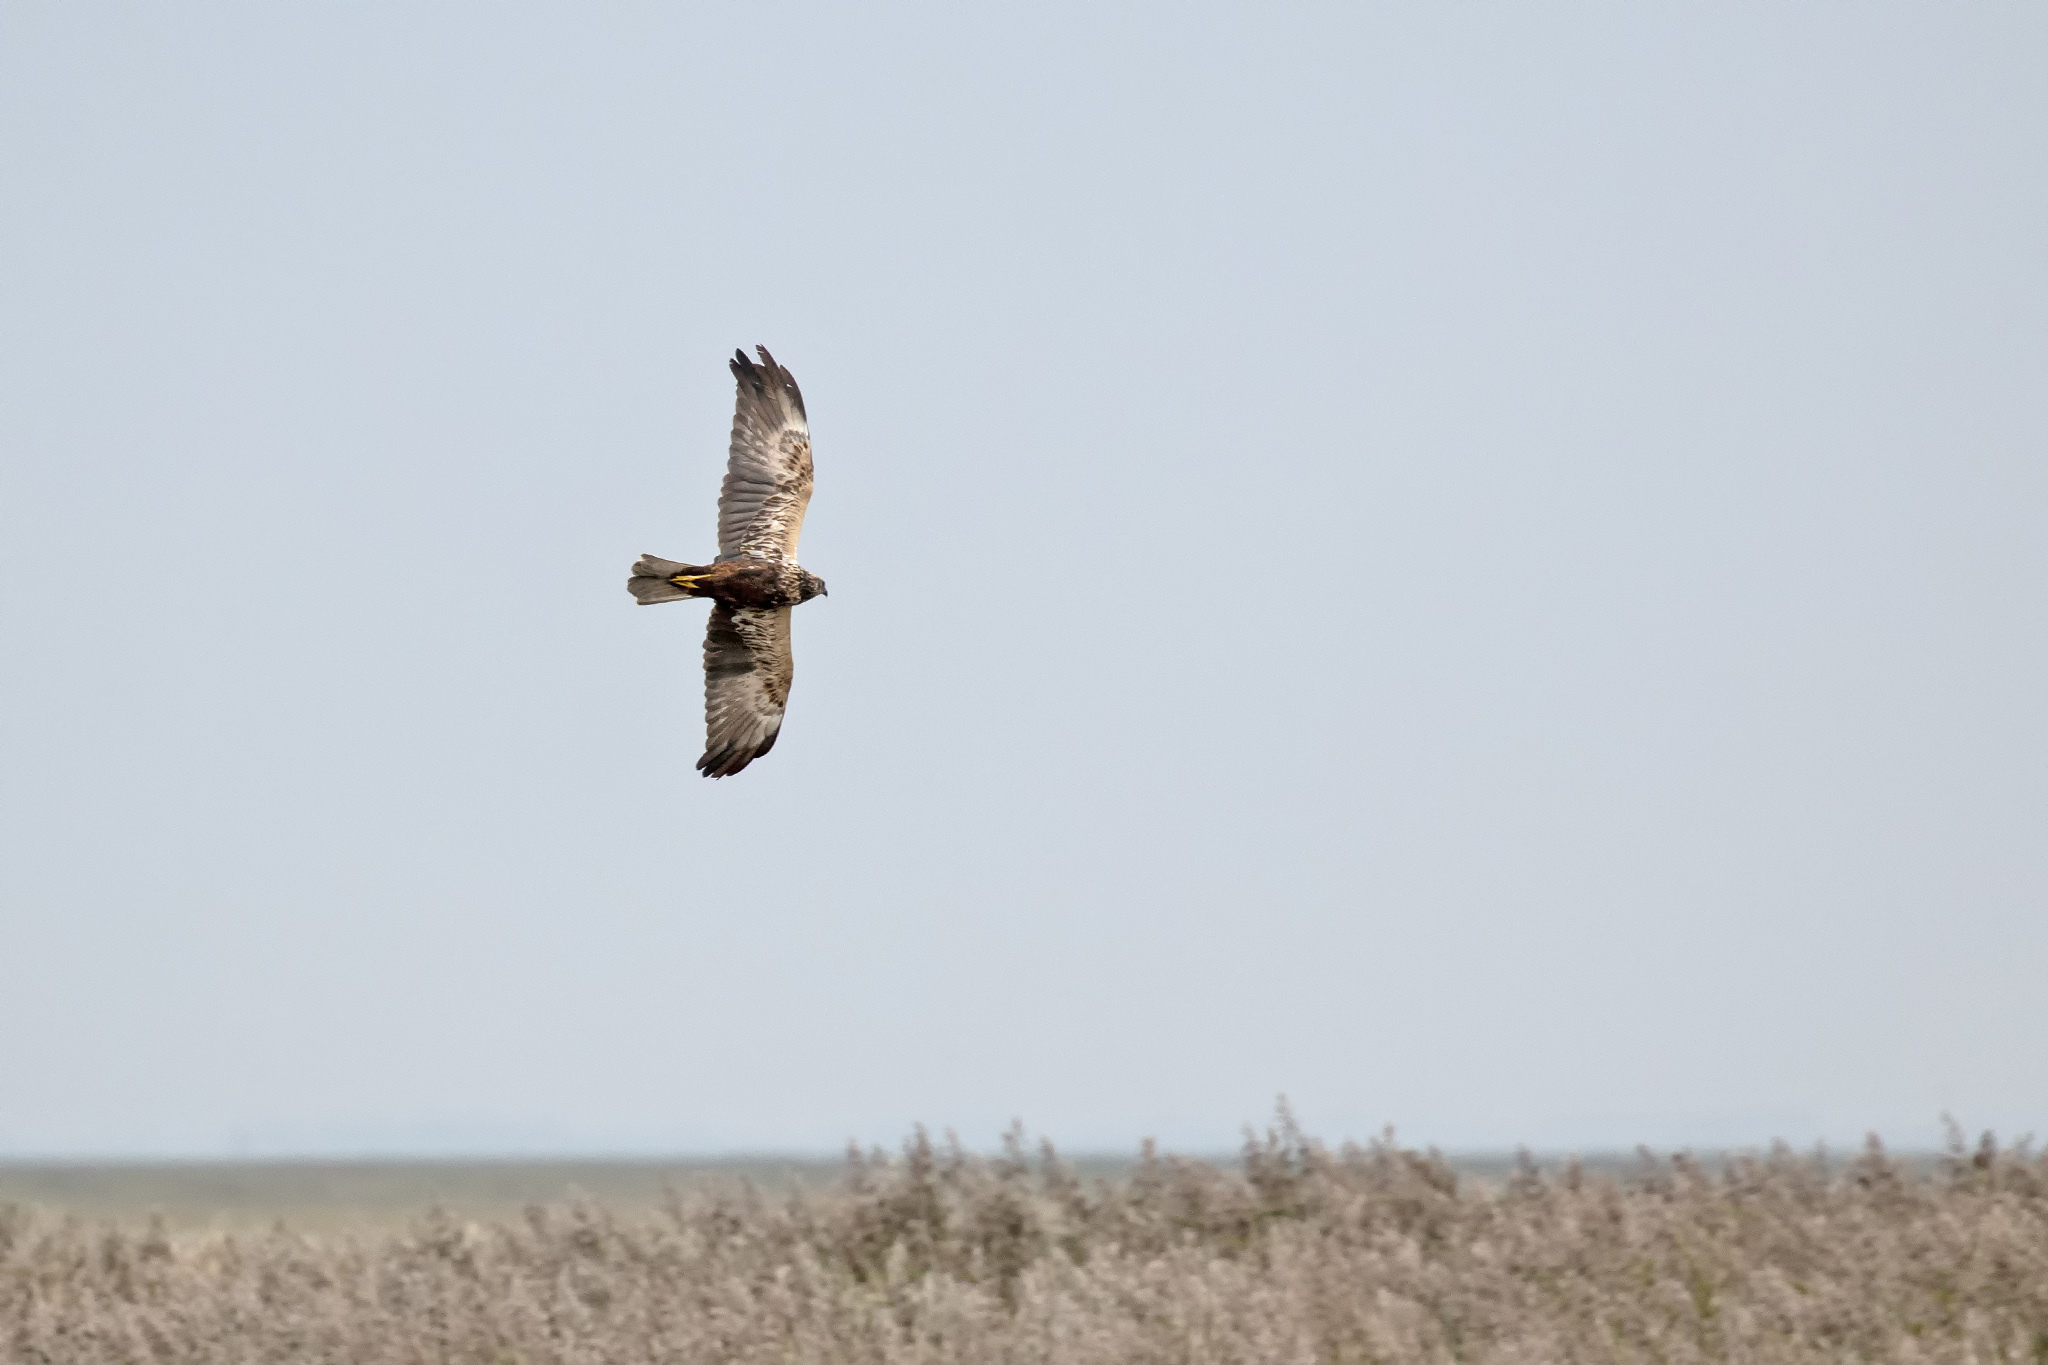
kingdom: Animalia
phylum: Chordata
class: Aves
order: Accipitriformes
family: Accipitridae
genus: Circus
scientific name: Circus aeruginosus
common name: Western marsh harrier
